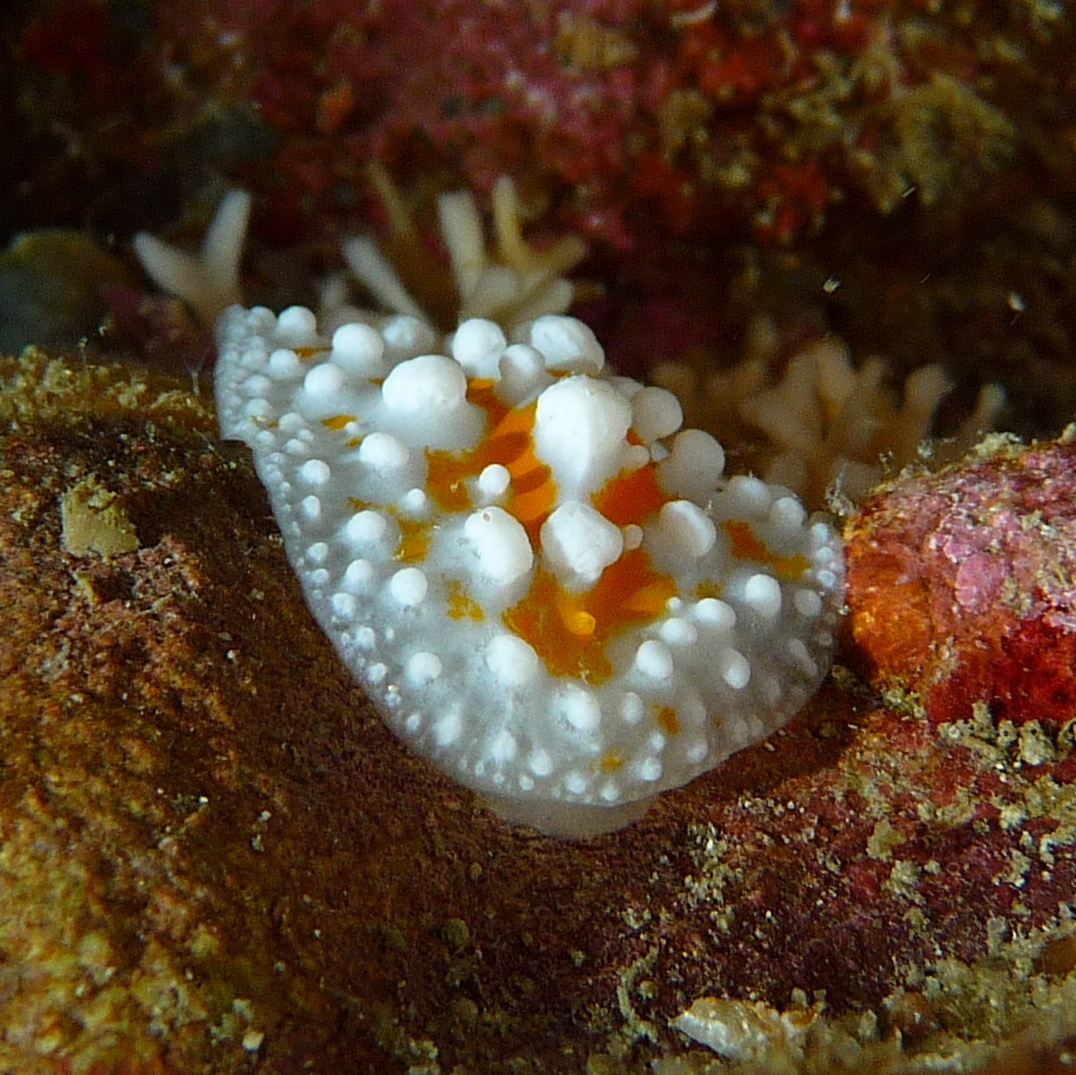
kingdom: Animalia
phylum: Mollusca
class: Gastropoda
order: Nudibranchia
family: Phyllidiidae
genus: Phyllidia
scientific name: Phyllidia ocellata
